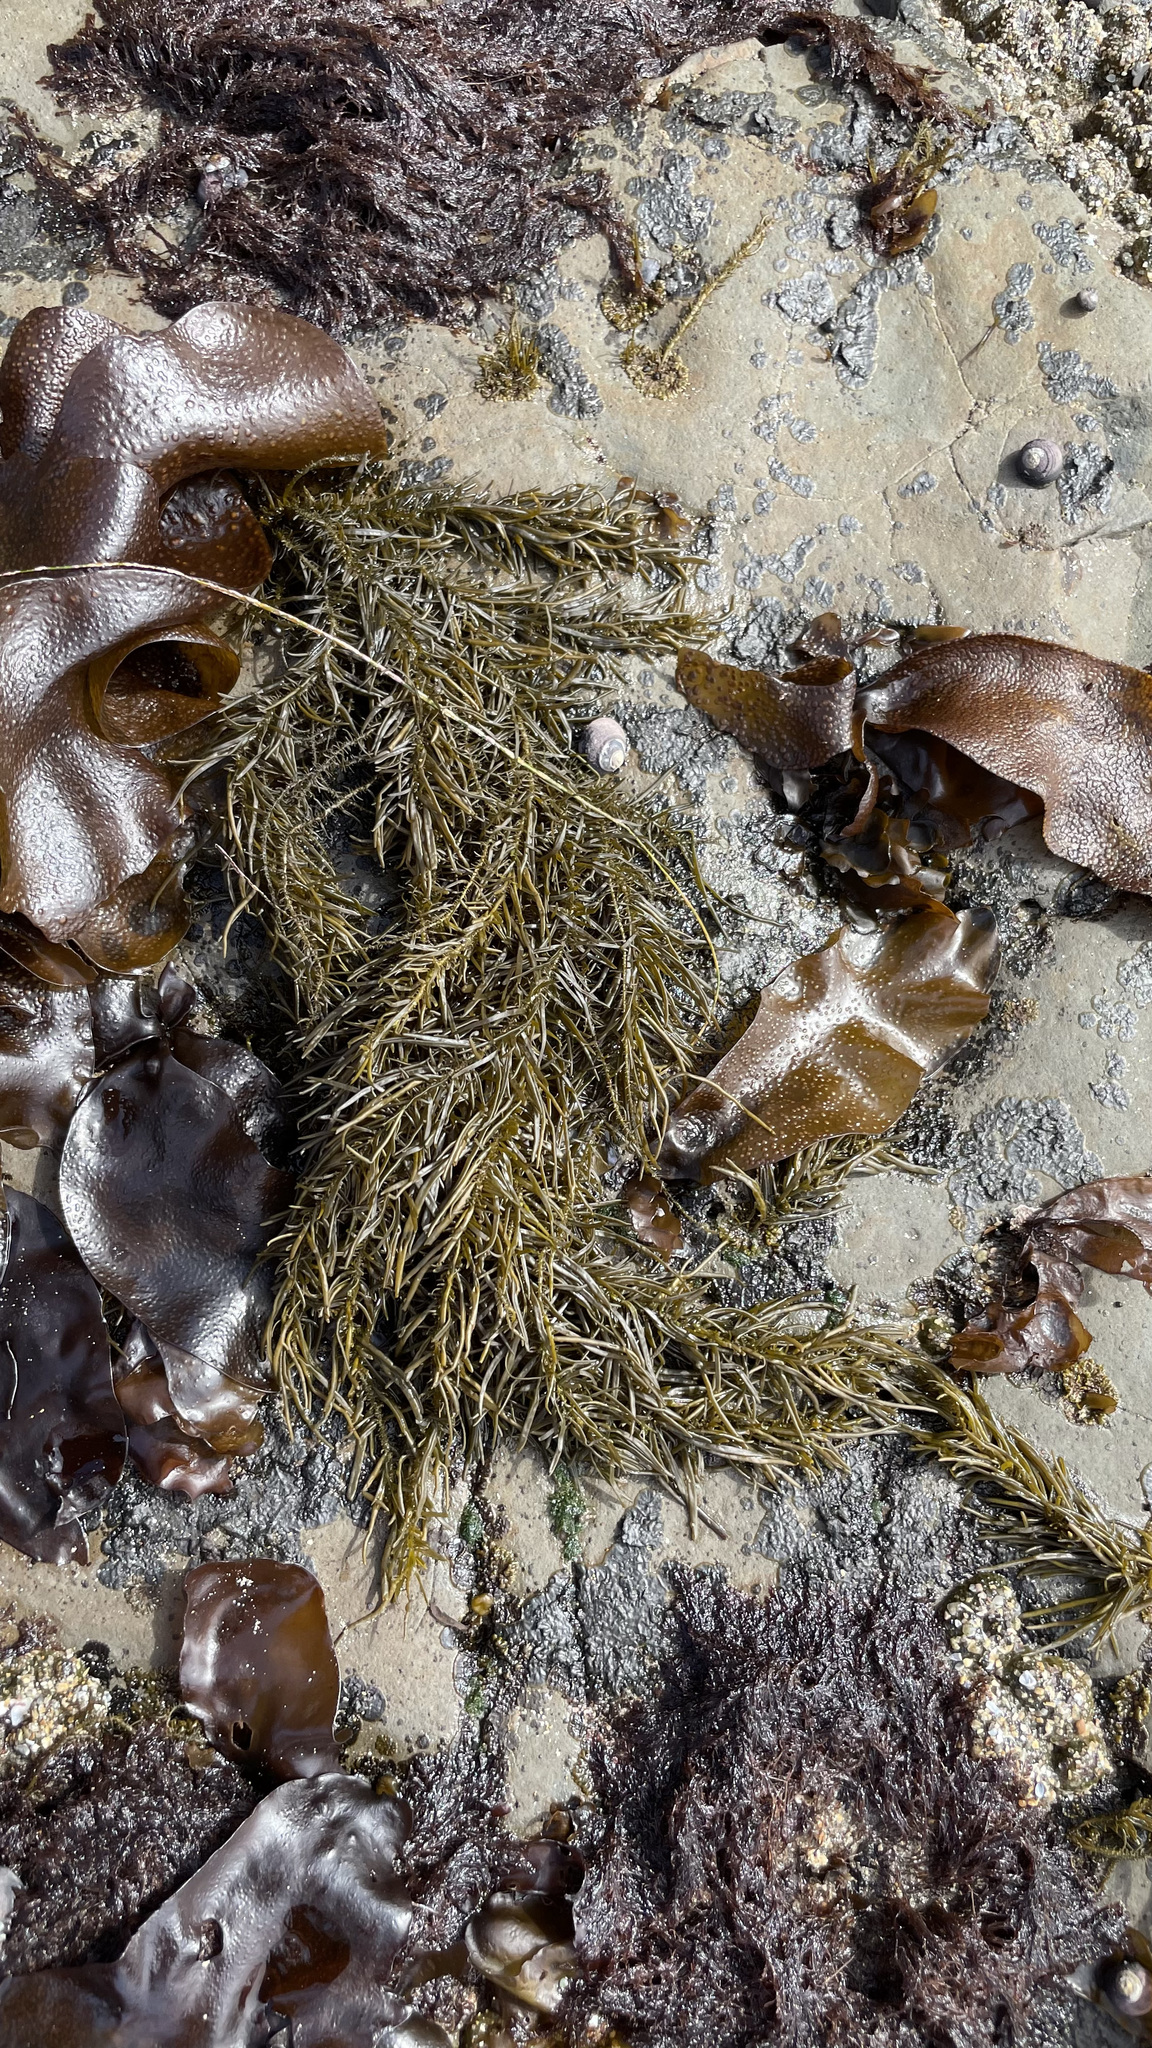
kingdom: Chromista
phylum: Ochrophyta
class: Phaeophyceae
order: Scytosiphonales
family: Scytosiphonaceae
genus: Analipus
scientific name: Analipus japonicus
